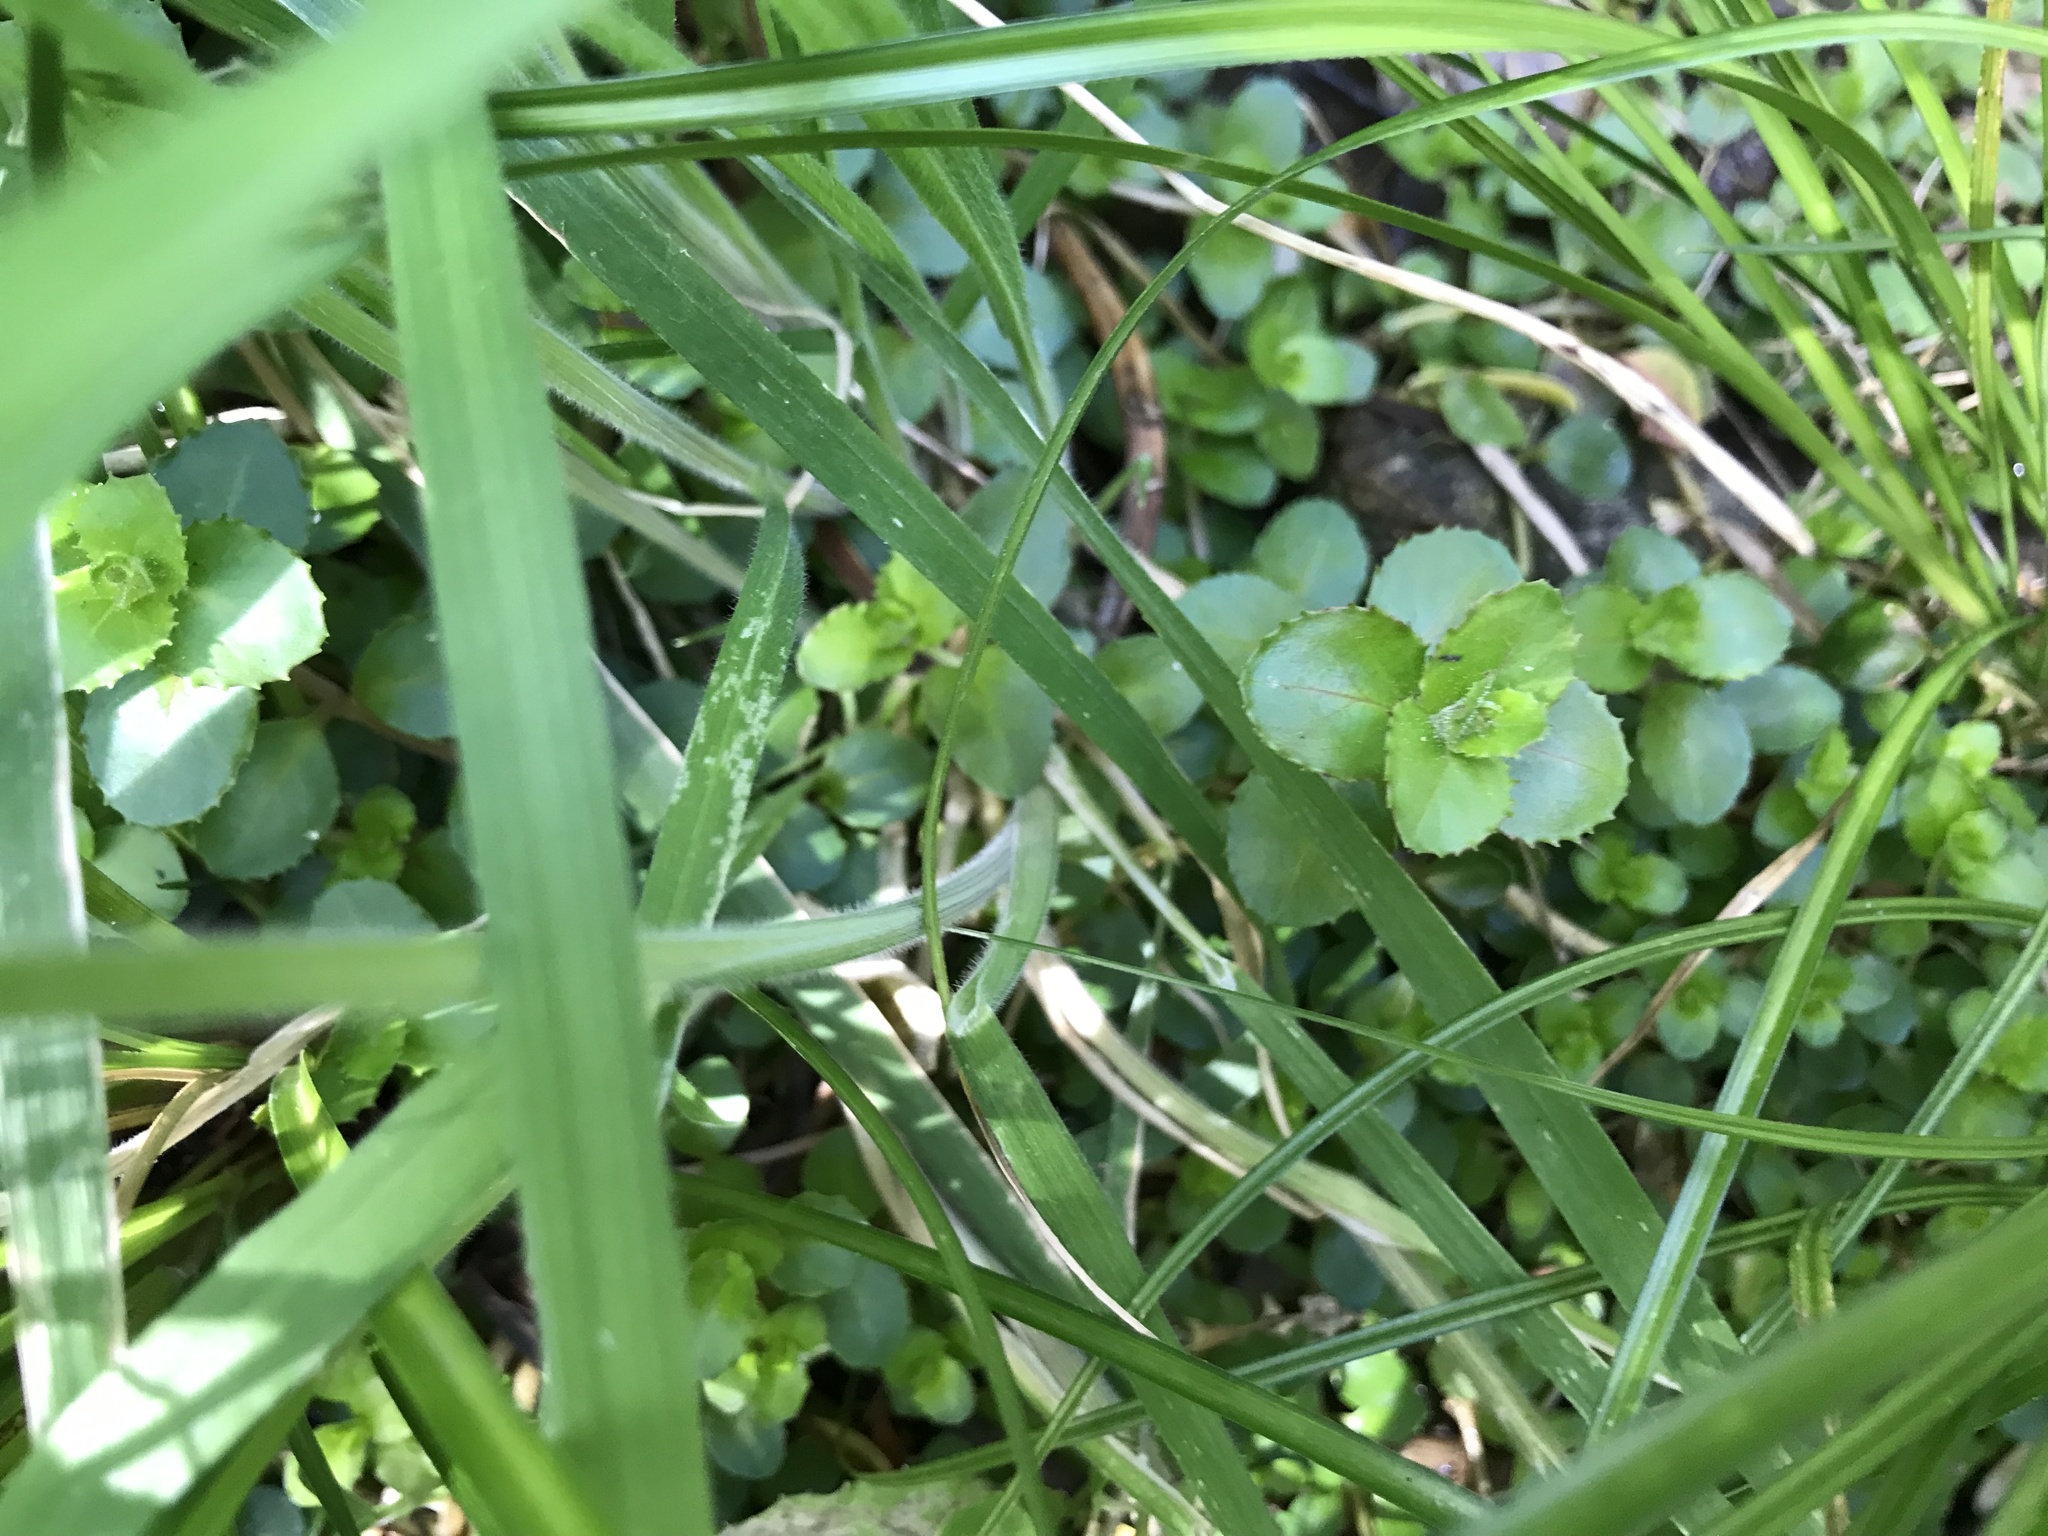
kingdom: Plantae
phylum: Tracheophyta
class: Magnoliopsida
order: Myrtales
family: Onagraceae
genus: Epilobium
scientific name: Epilobium rotundifolium
